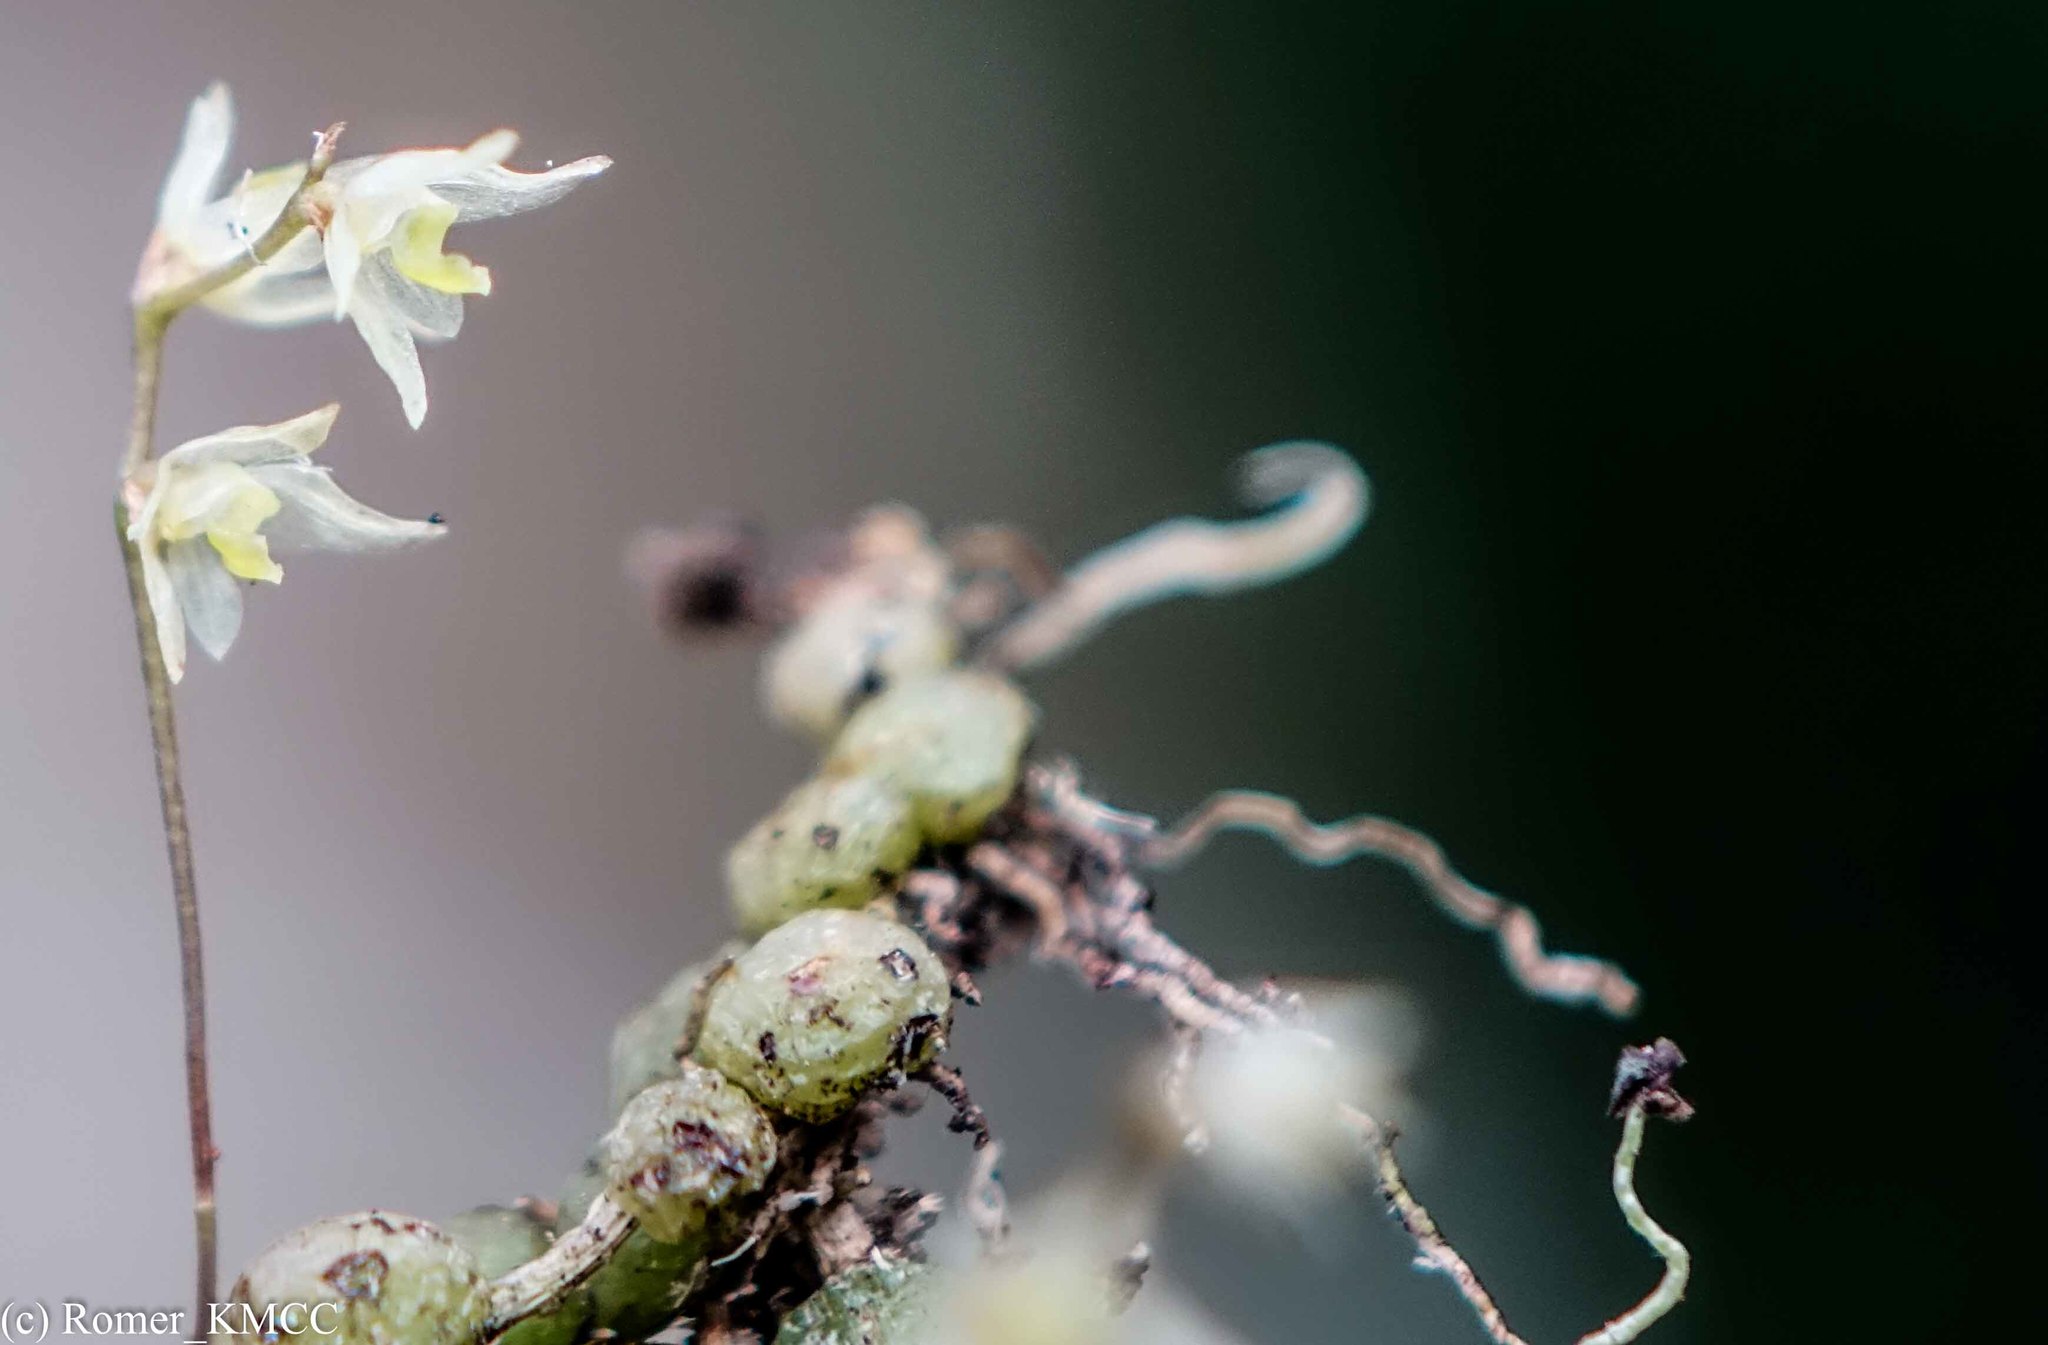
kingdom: Plantae
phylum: Tracheophyta
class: Liliopsida
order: Asparagales
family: Orchidaceae
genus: Bulbophyllum
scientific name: Bulbophyllum conchidioides
